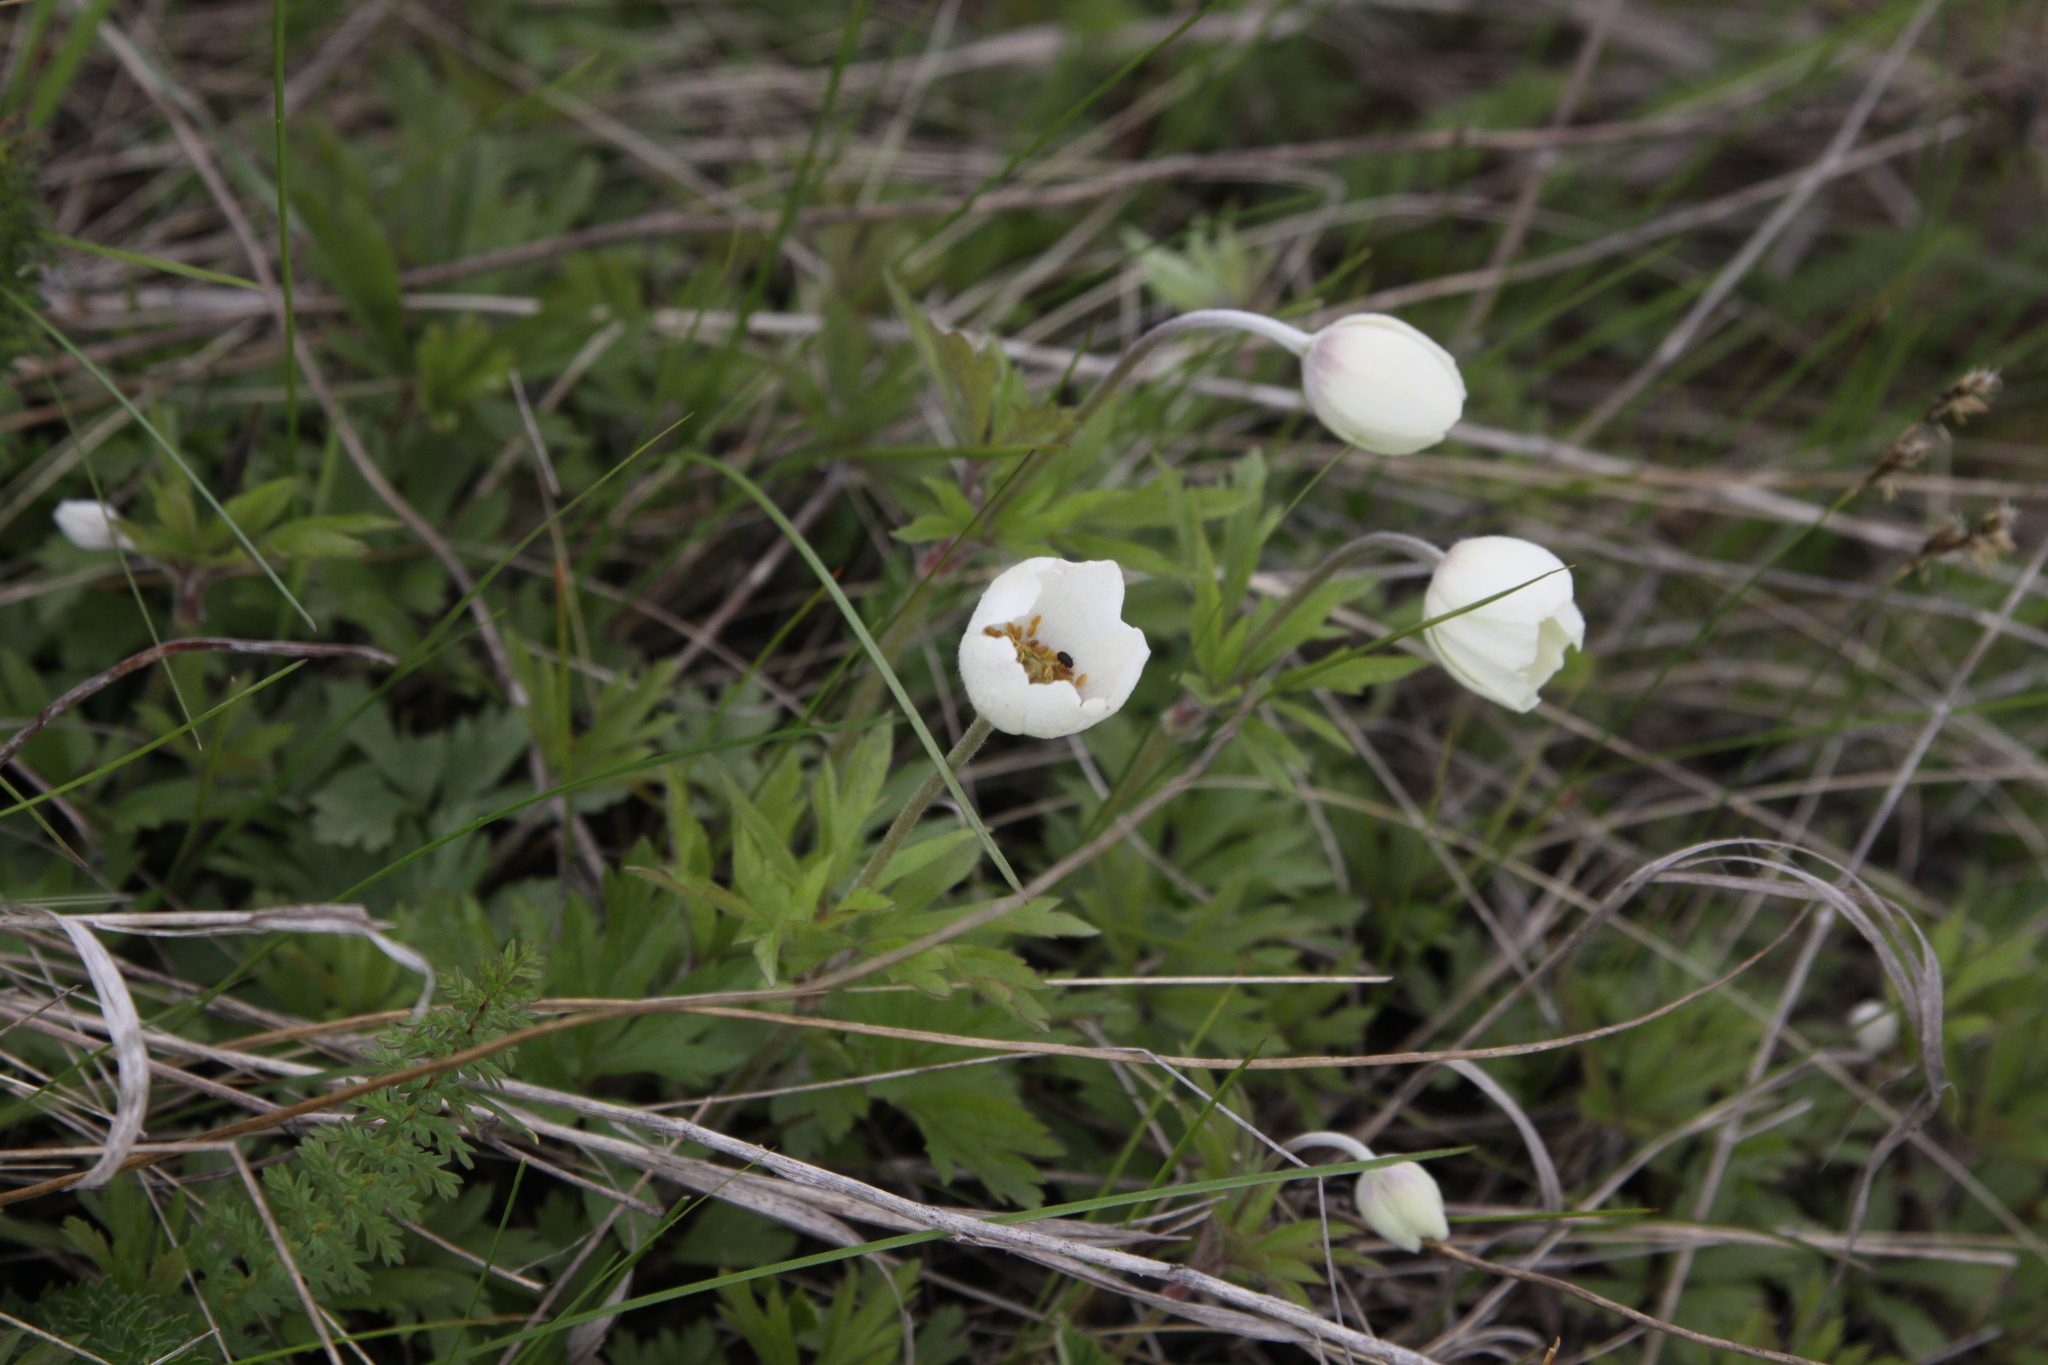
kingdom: Plantae
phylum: Tracheophyta
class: Magnoliopsida
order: Ranunculales
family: Ranunculaceae
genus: Anemone
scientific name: Anemone sylvestris
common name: Snowdrop anemone
